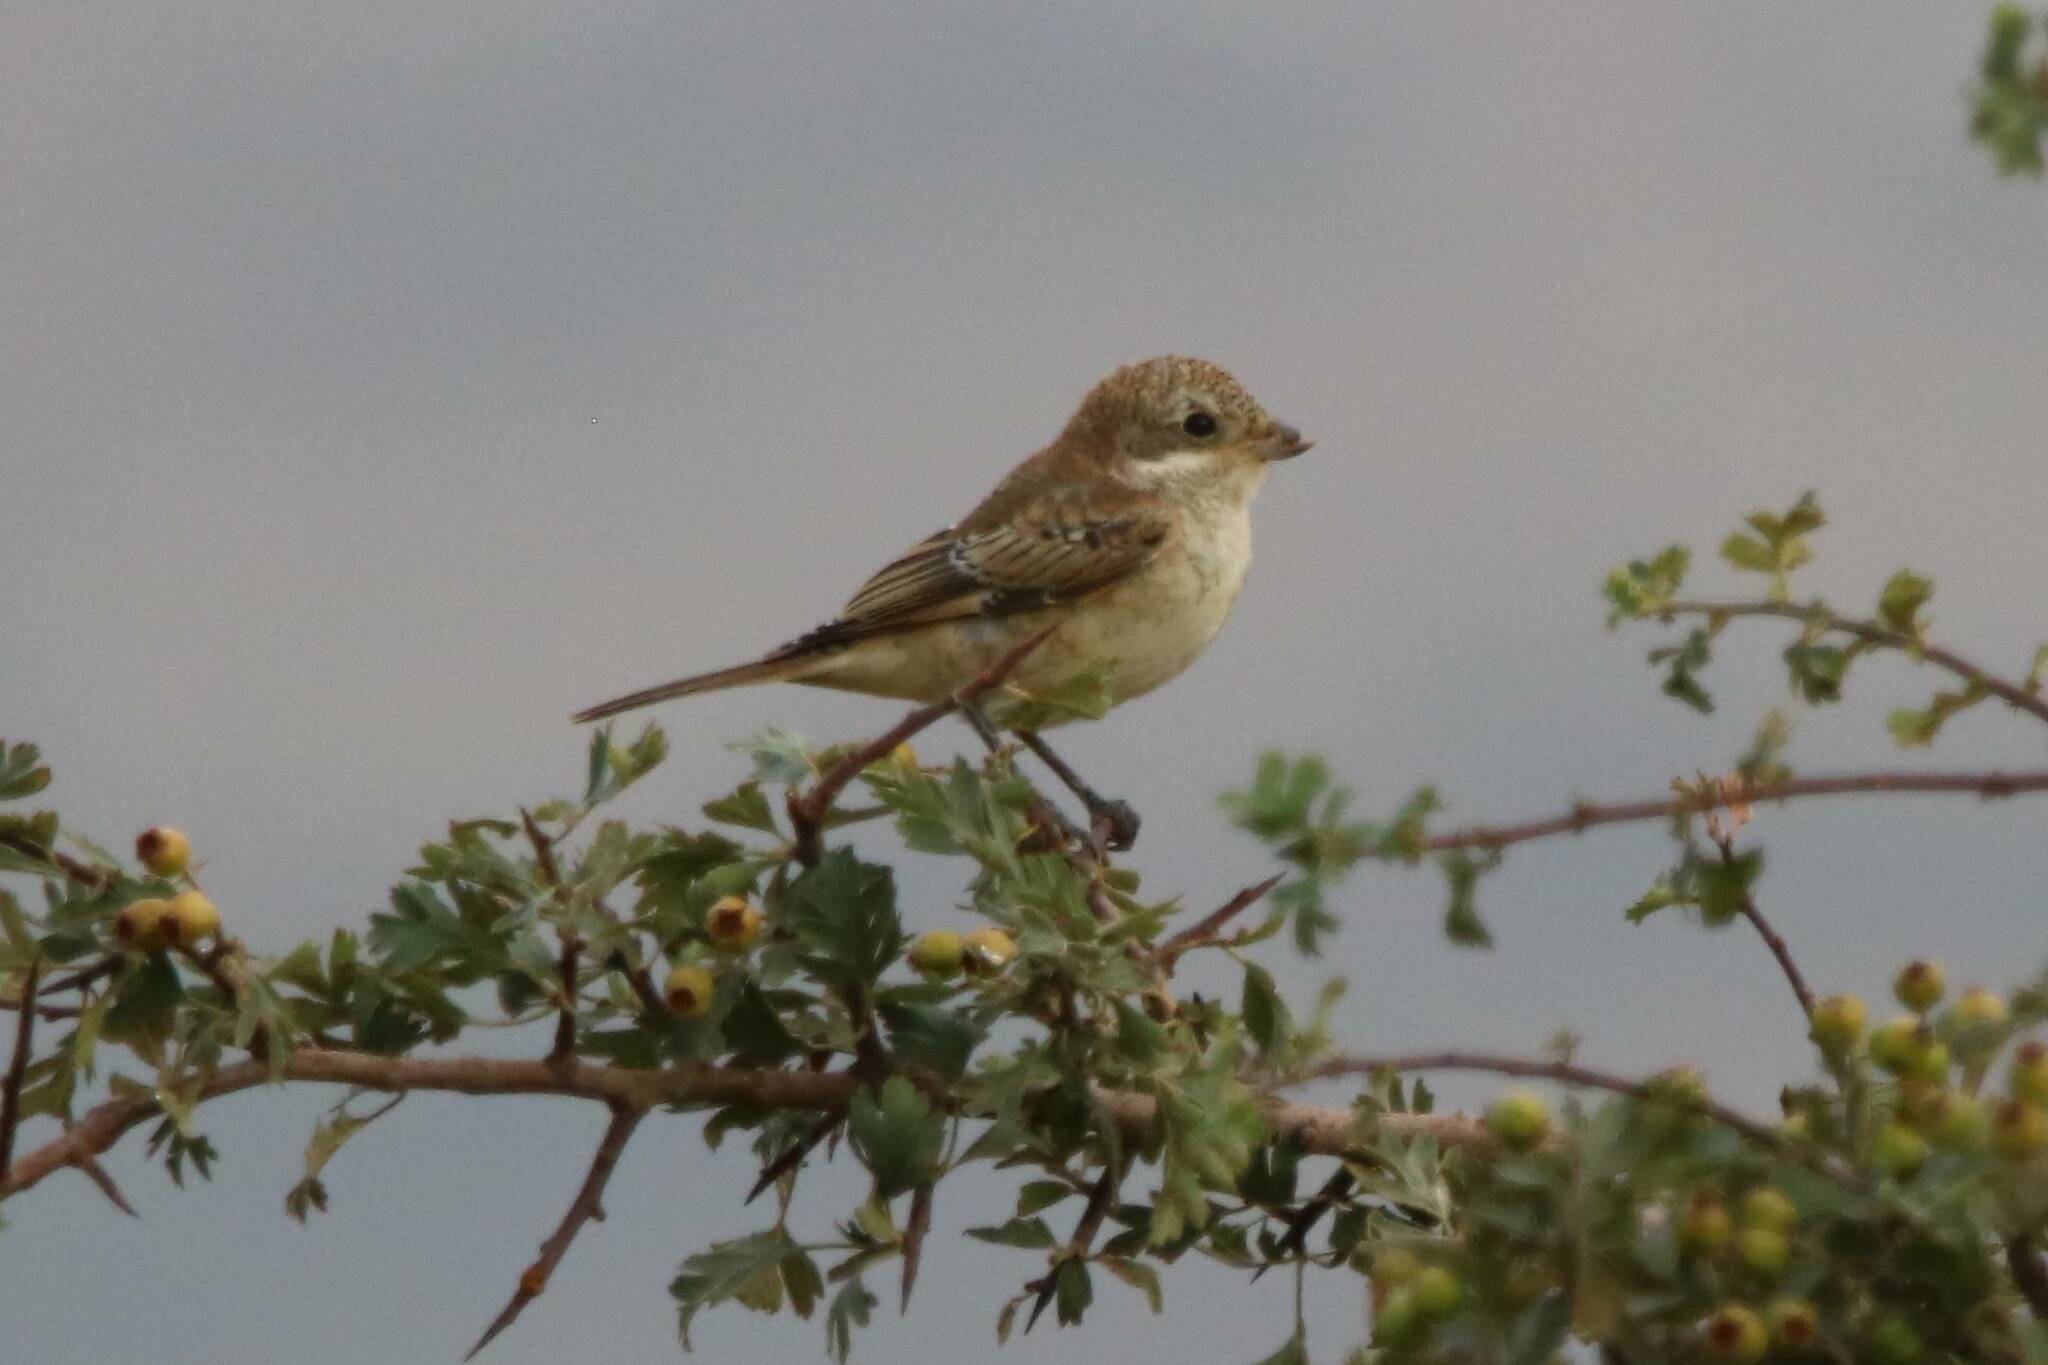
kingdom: Animalia
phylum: Chordata
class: Aves
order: Passeriformes
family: Laniidae
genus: Lanius
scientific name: Lanius senator
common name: Woodchat shrike
